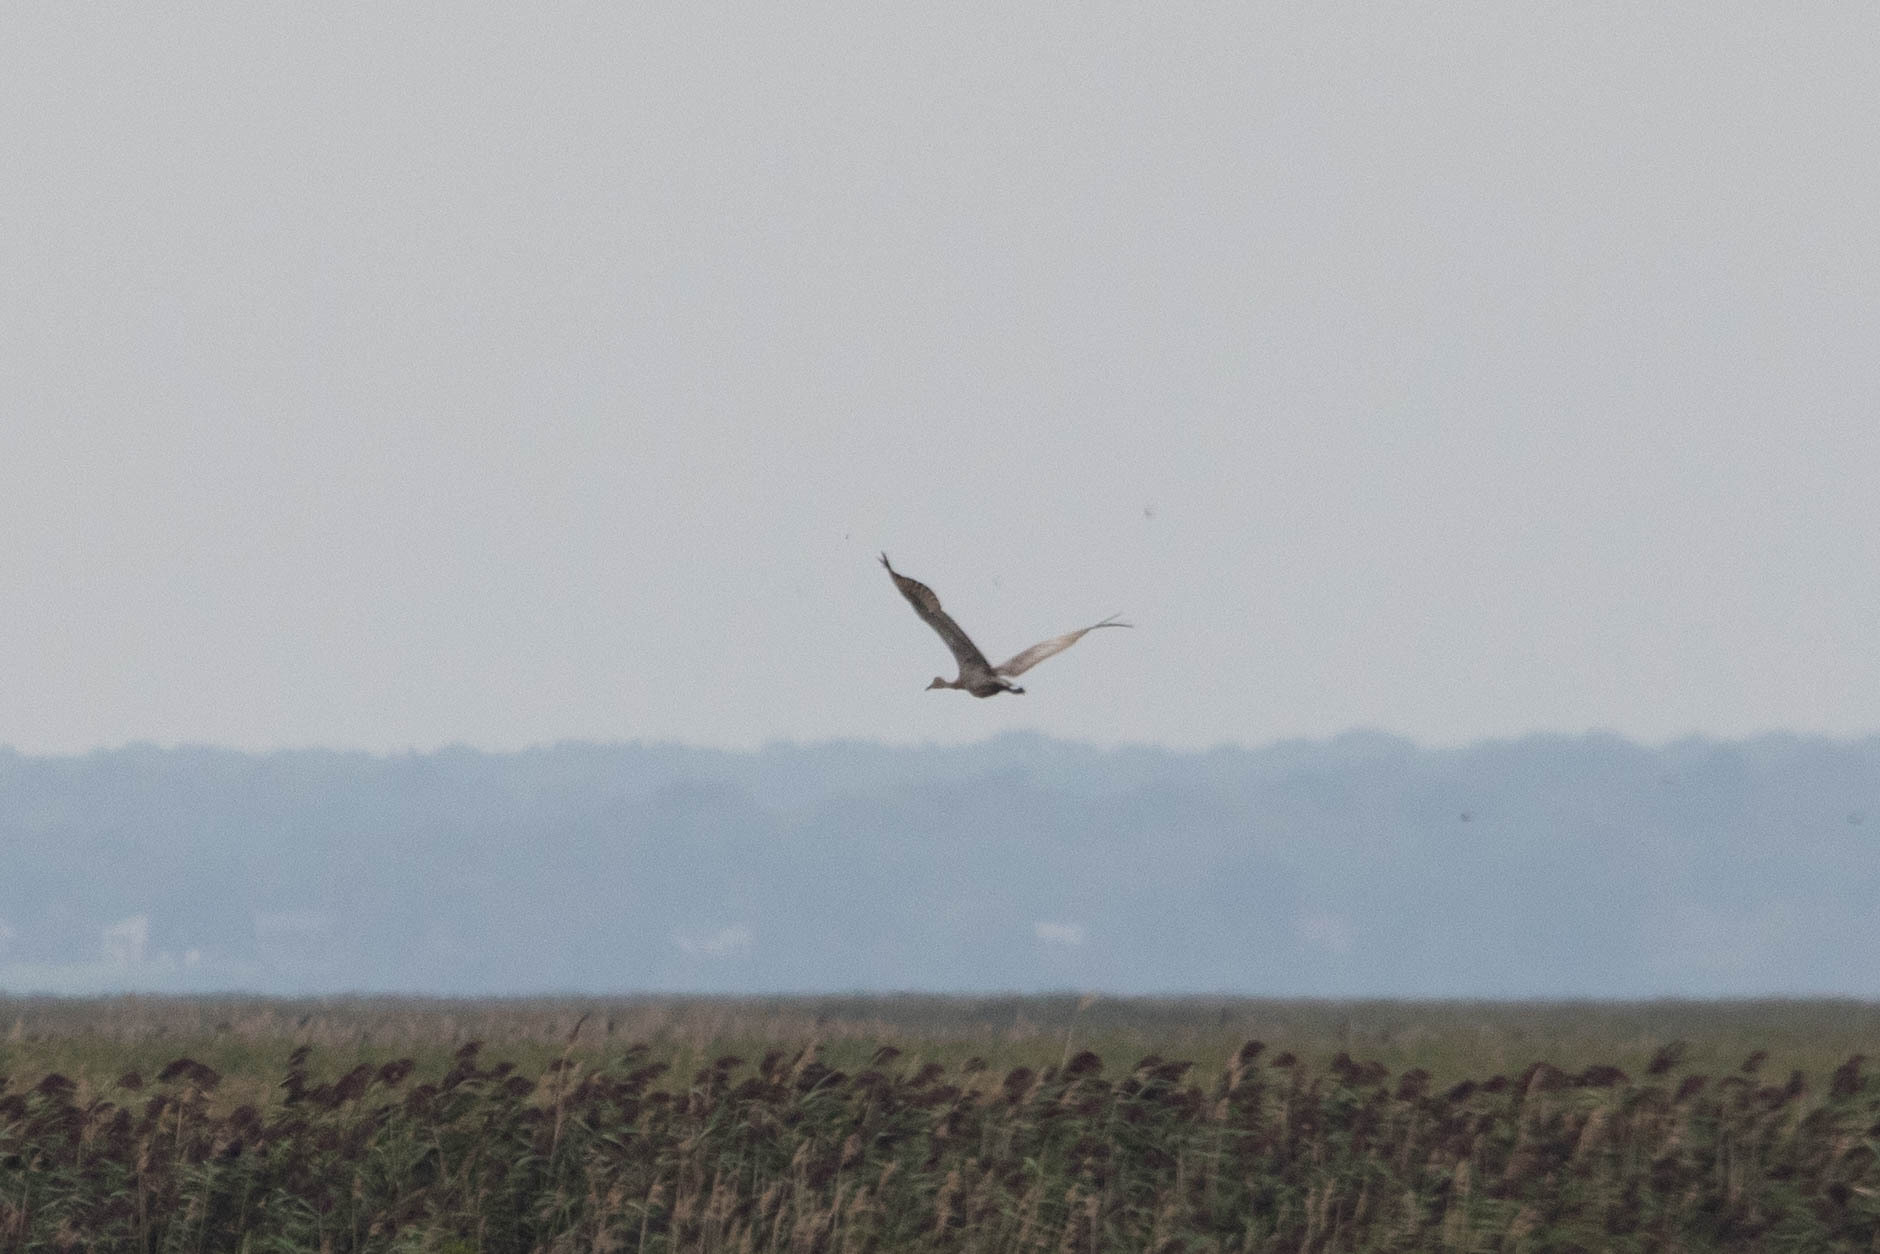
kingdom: Animalia
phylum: Chordata
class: Aves
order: Gruiformes
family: Gruidae
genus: Grus
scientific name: Grus canadensis
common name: Sandhill crane
